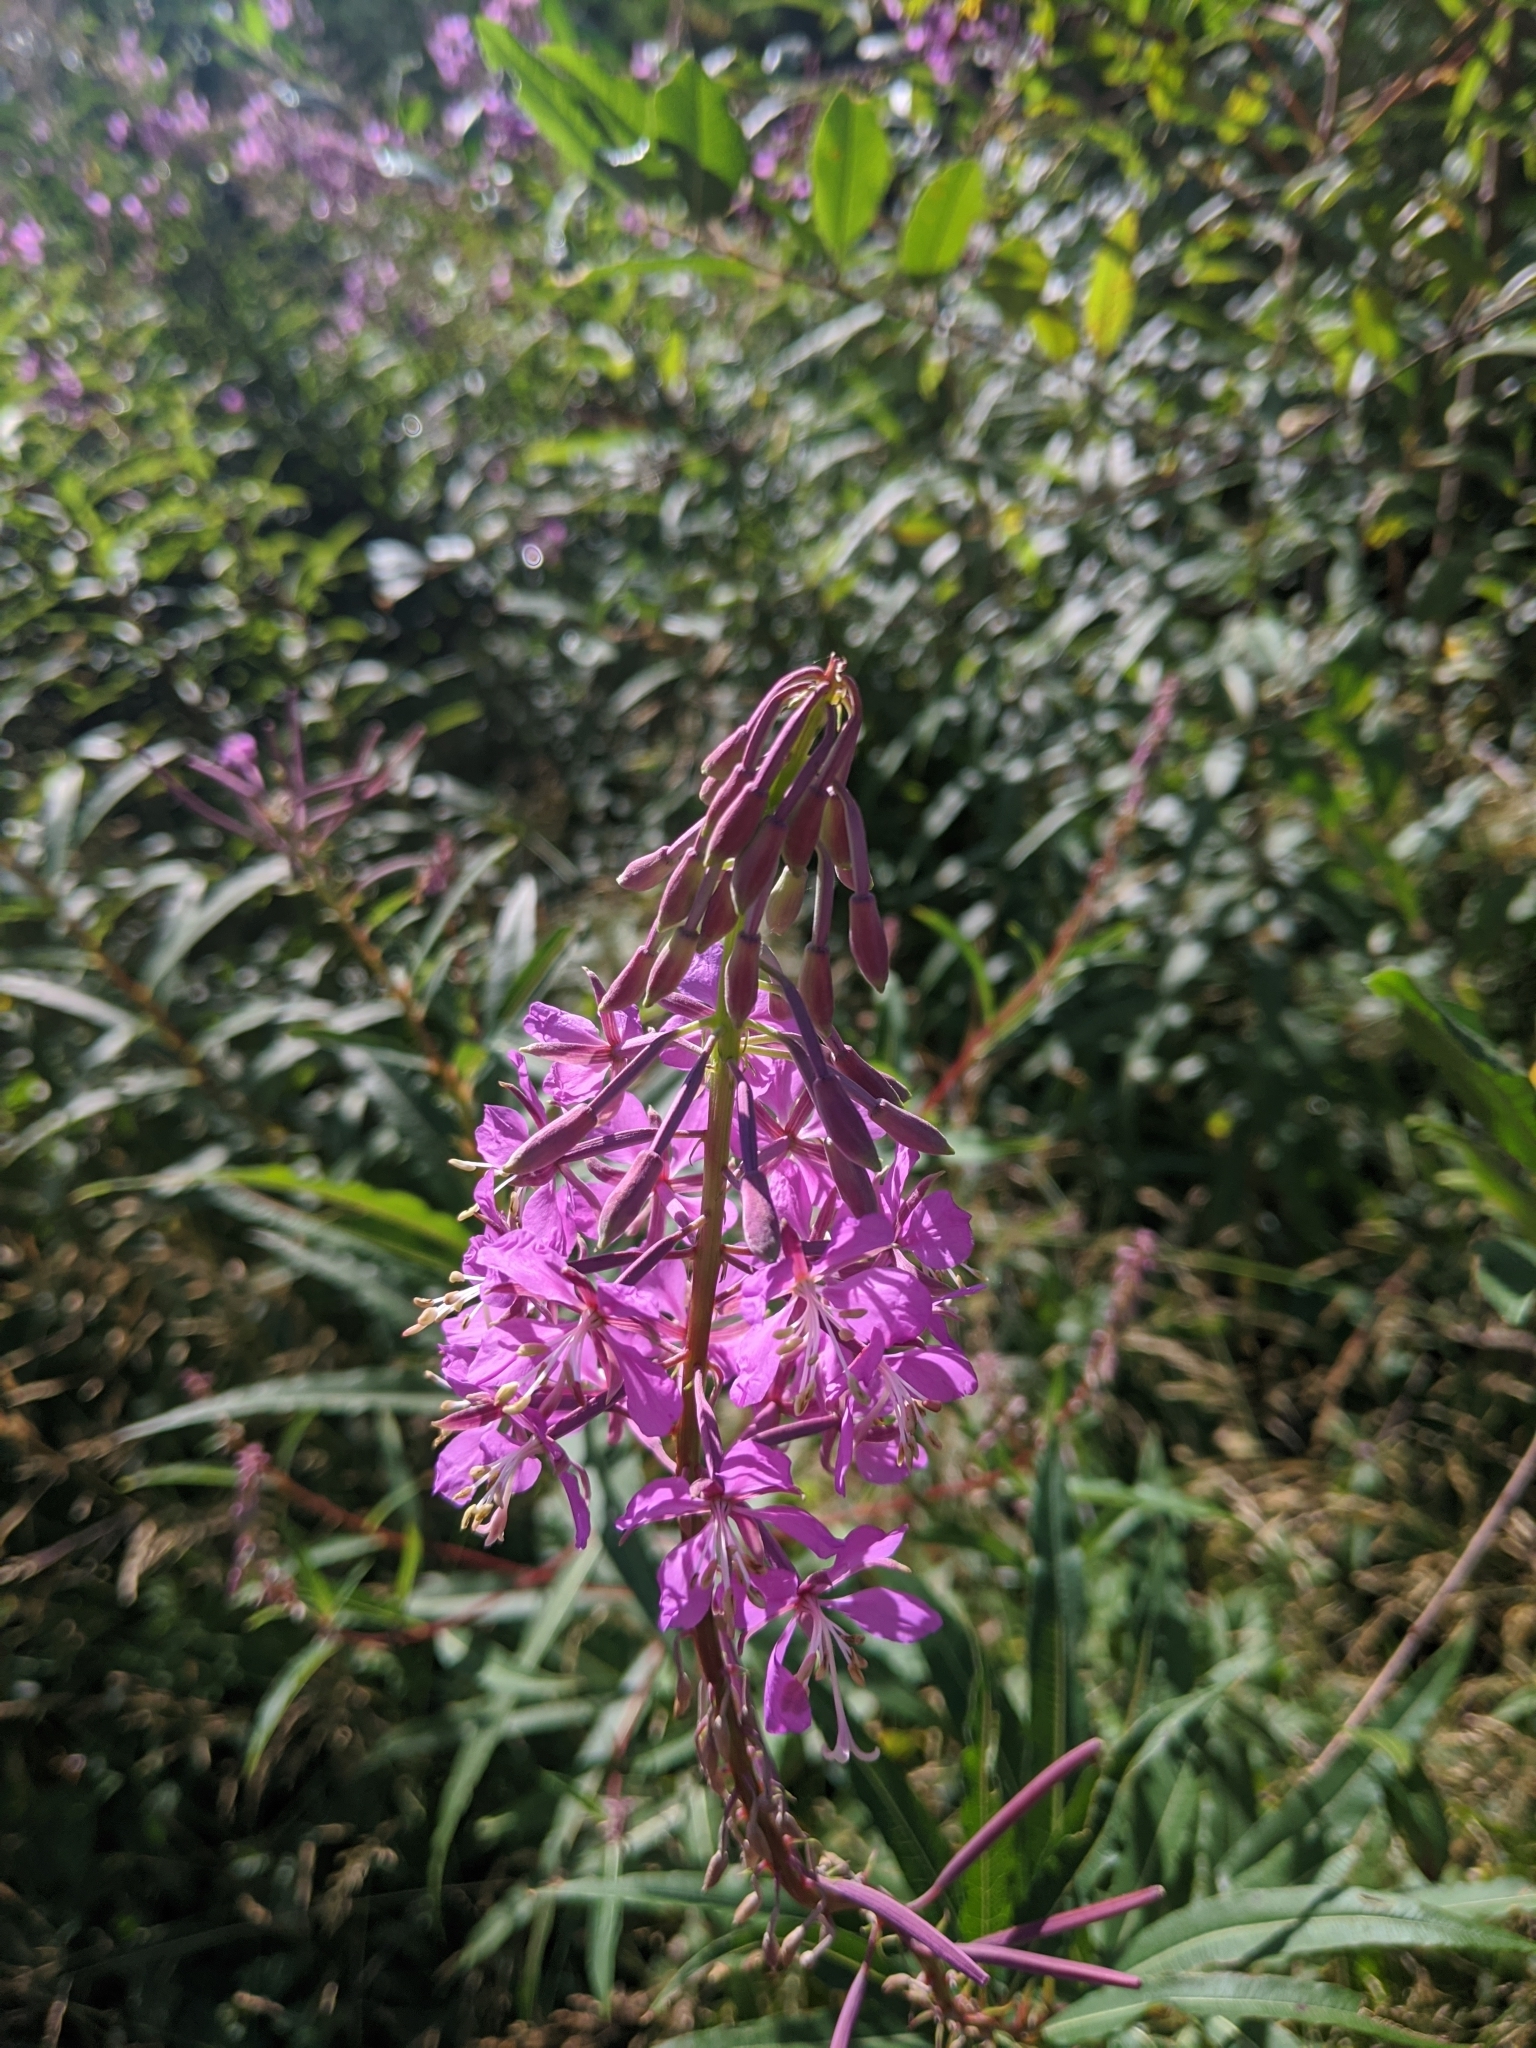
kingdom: Plantae
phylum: Tracheophyta
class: Magnoliopsida
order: Myrtales
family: Onagraceae
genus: Chamaenerion
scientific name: Chamaenerion angustifolium
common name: Fireweed
